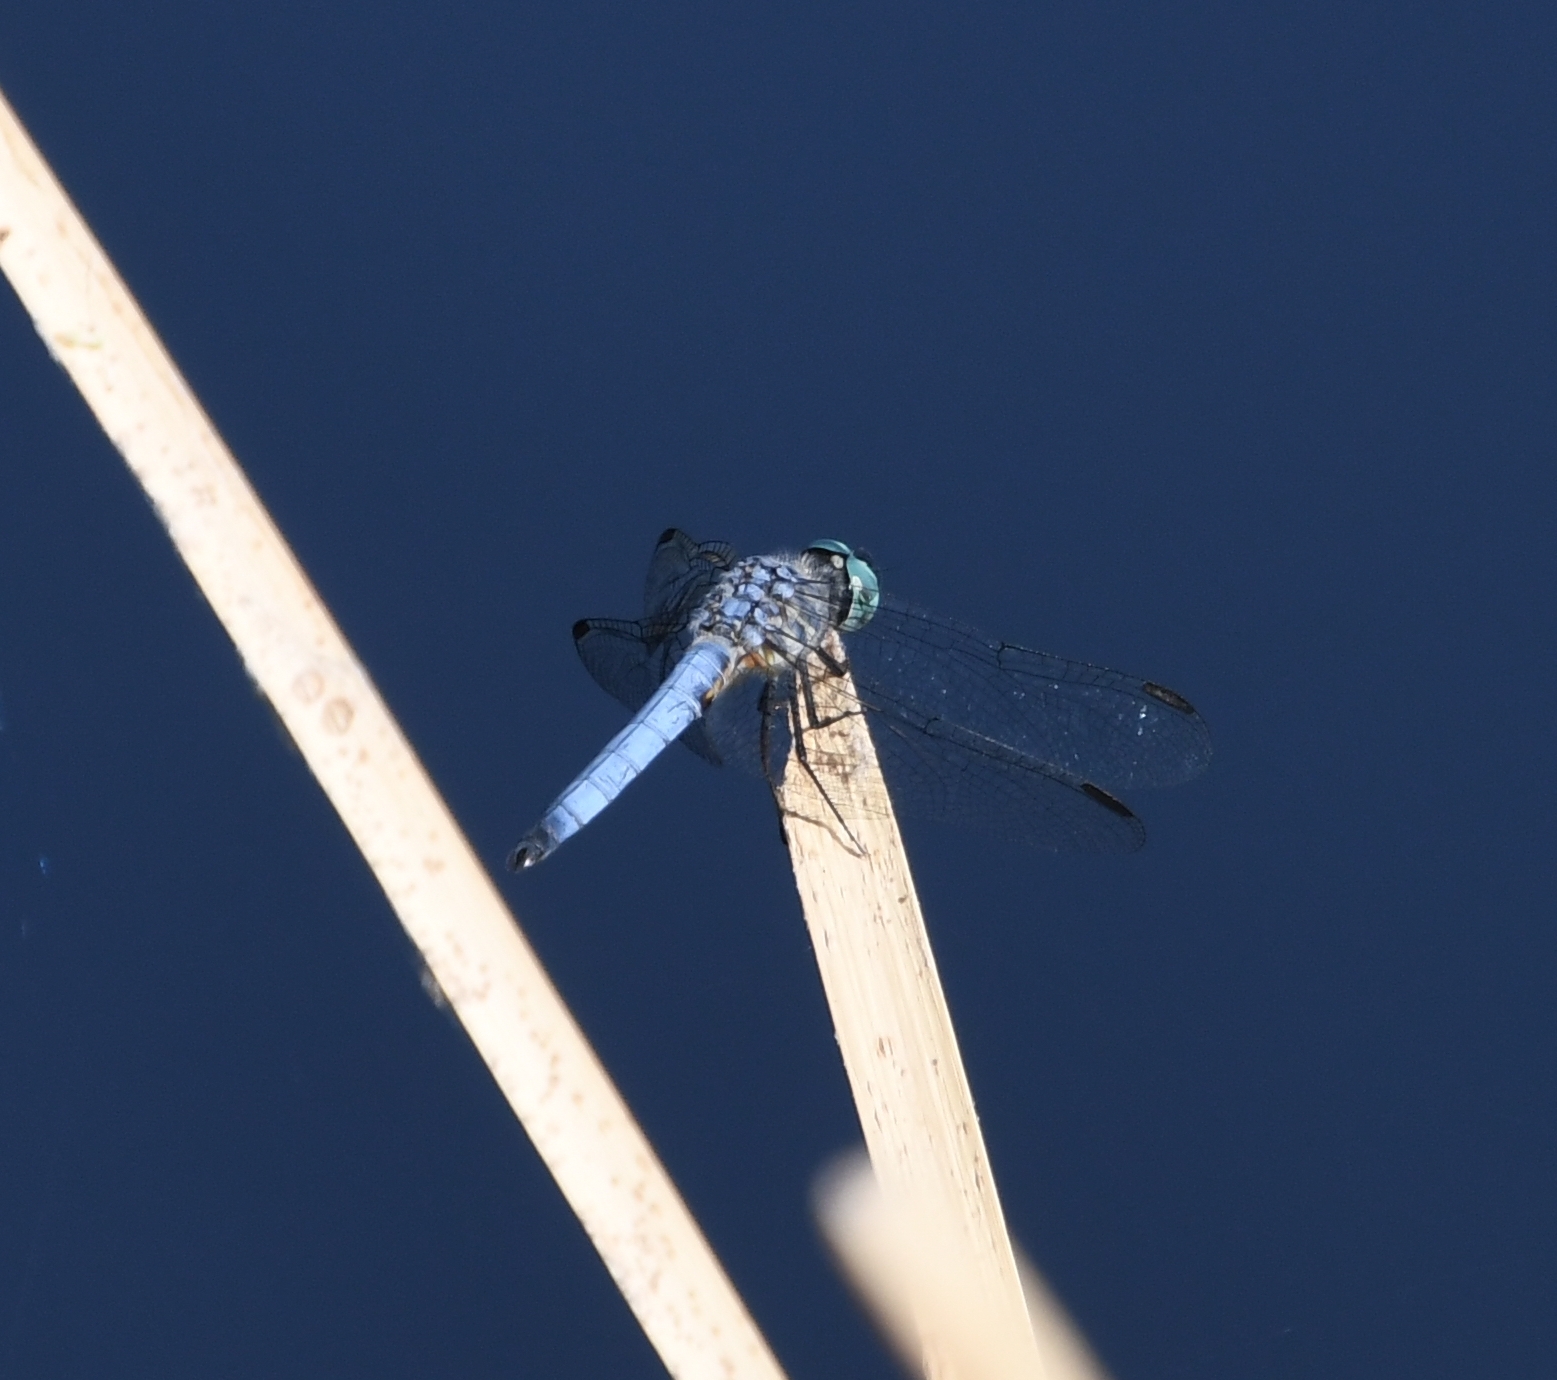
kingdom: Animalia
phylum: Arthropoda
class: Insecta
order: Odonata
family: Libellulidae
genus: Pachydiplax
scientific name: Pachydiplax longipennis
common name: Blue dasher
